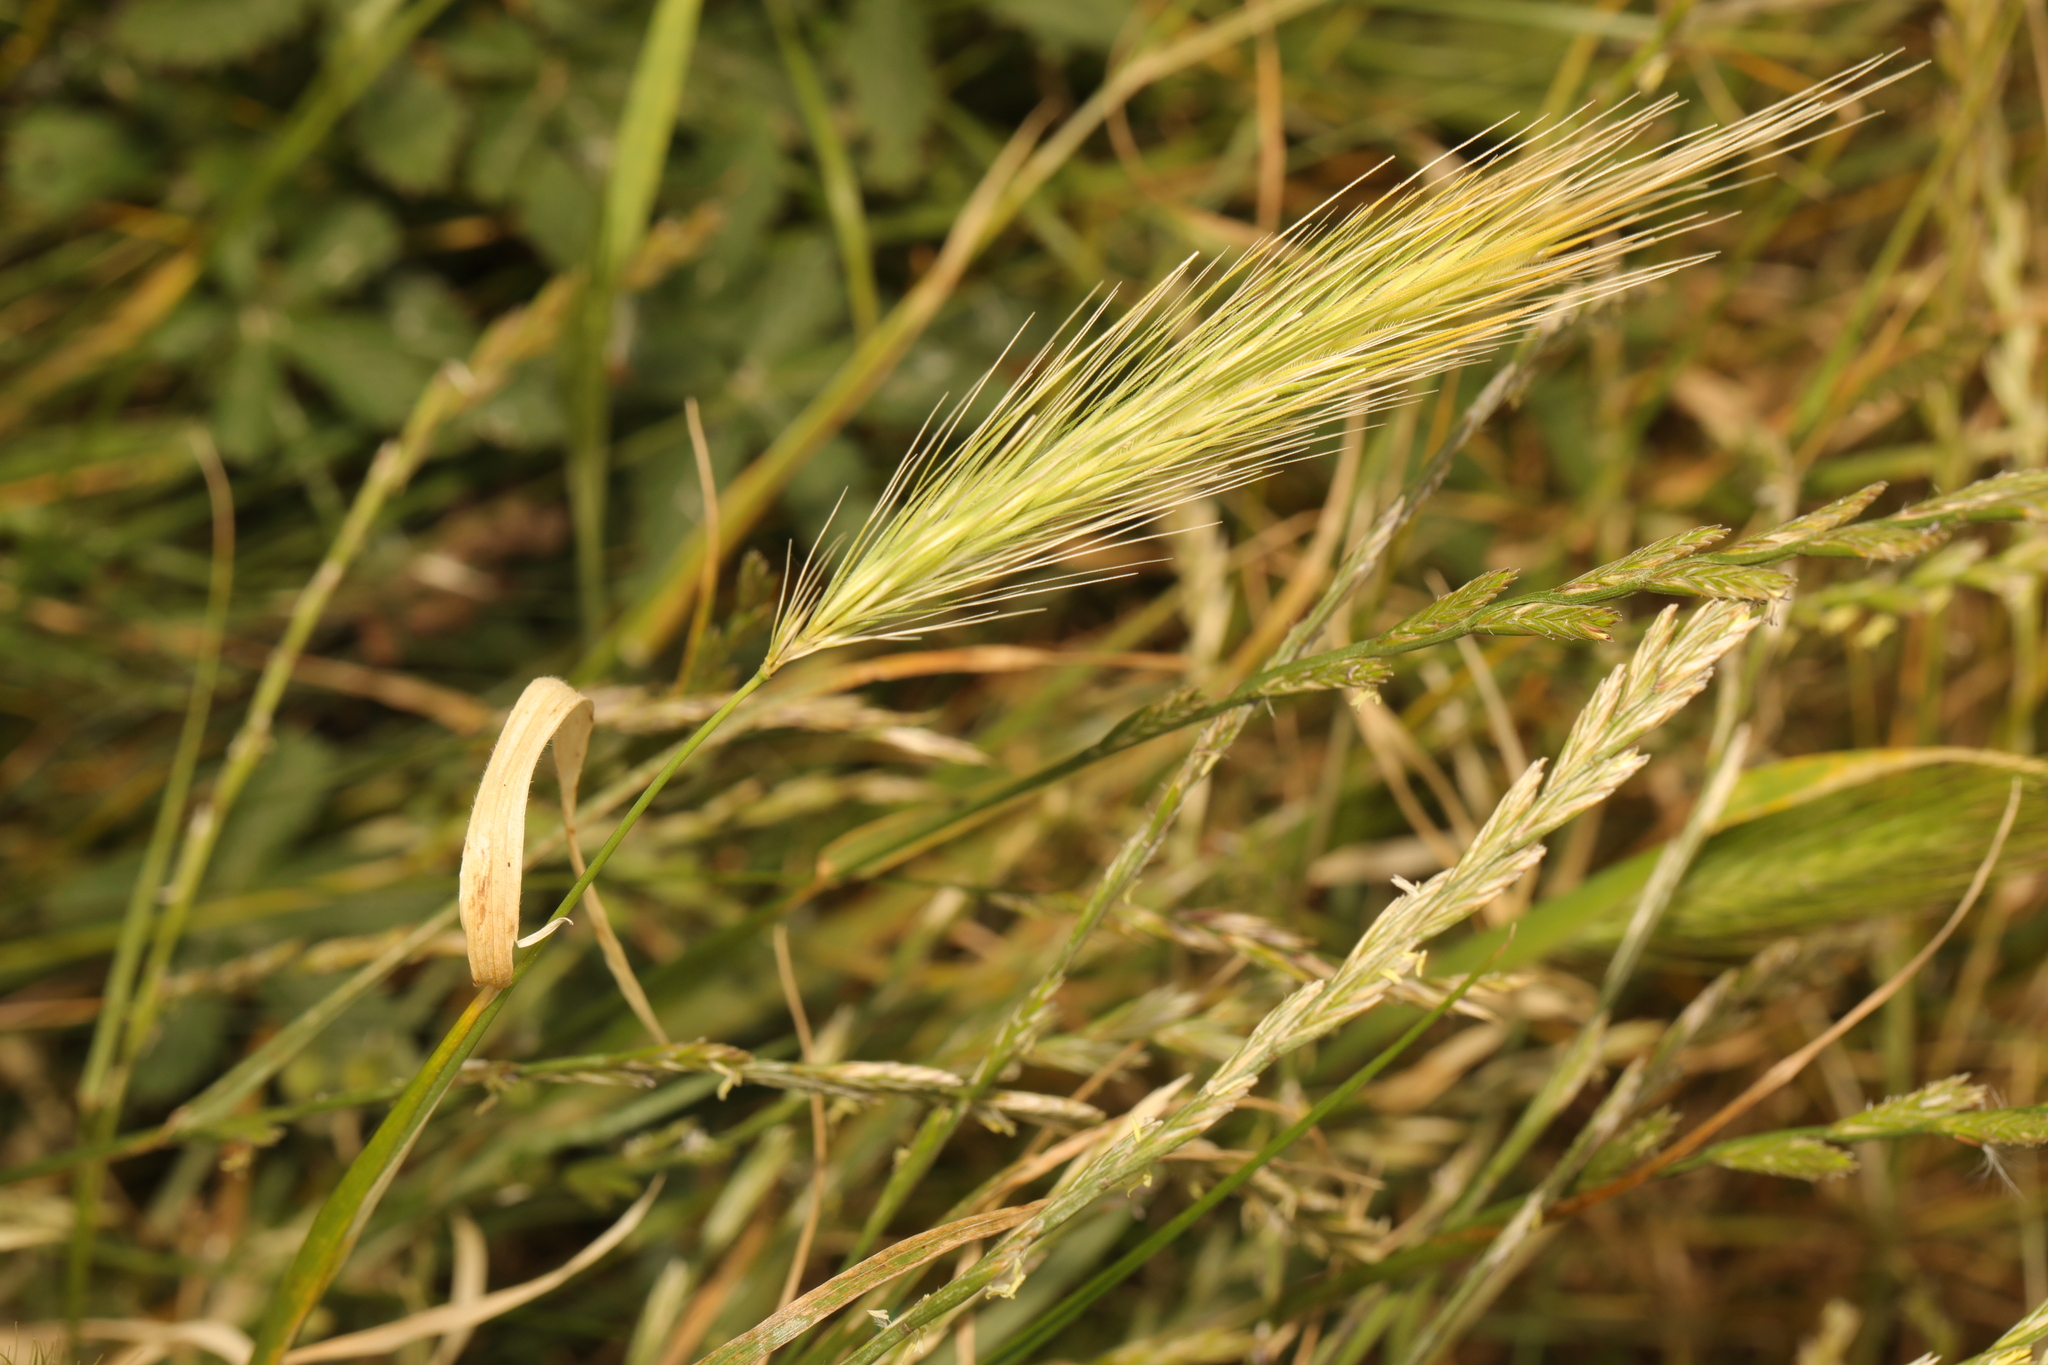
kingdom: Plantae
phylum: Tracheophyta
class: Liliopsida
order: Poales
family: Poaceae
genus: Hordeum
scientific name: Hordeum murinum
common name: Wall barley
